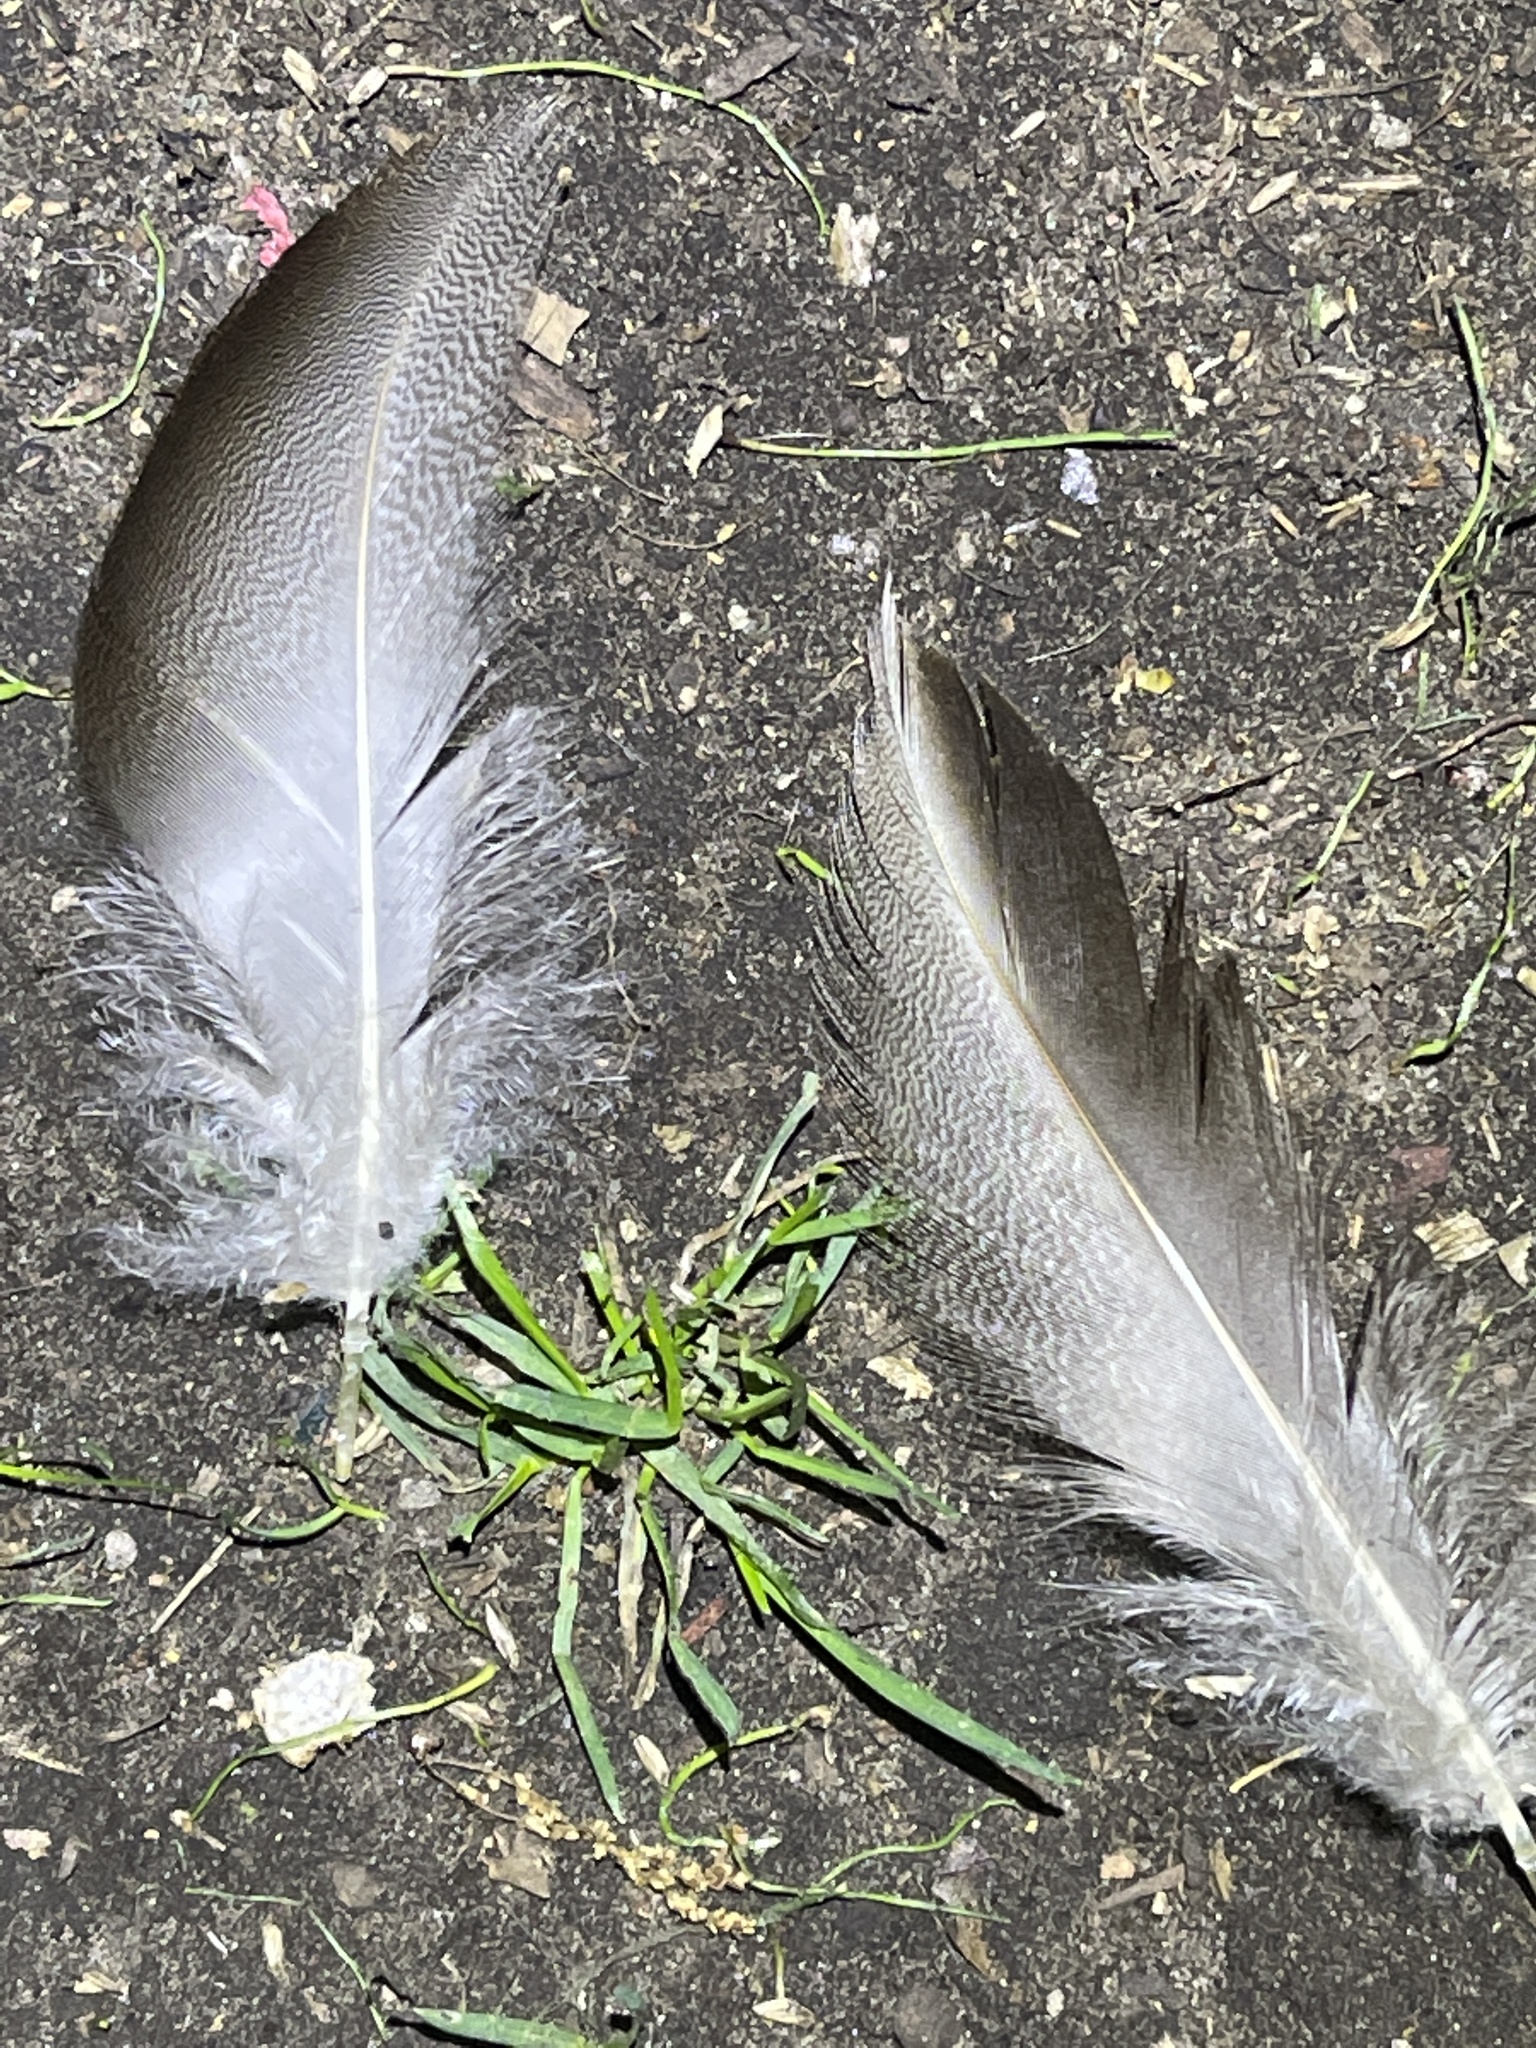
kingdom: Animalia
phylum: Chordata
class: Aves
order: Anseriformes
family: Anatidae
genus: Anas
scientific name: Anas platyrhynchos
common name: Mallard
